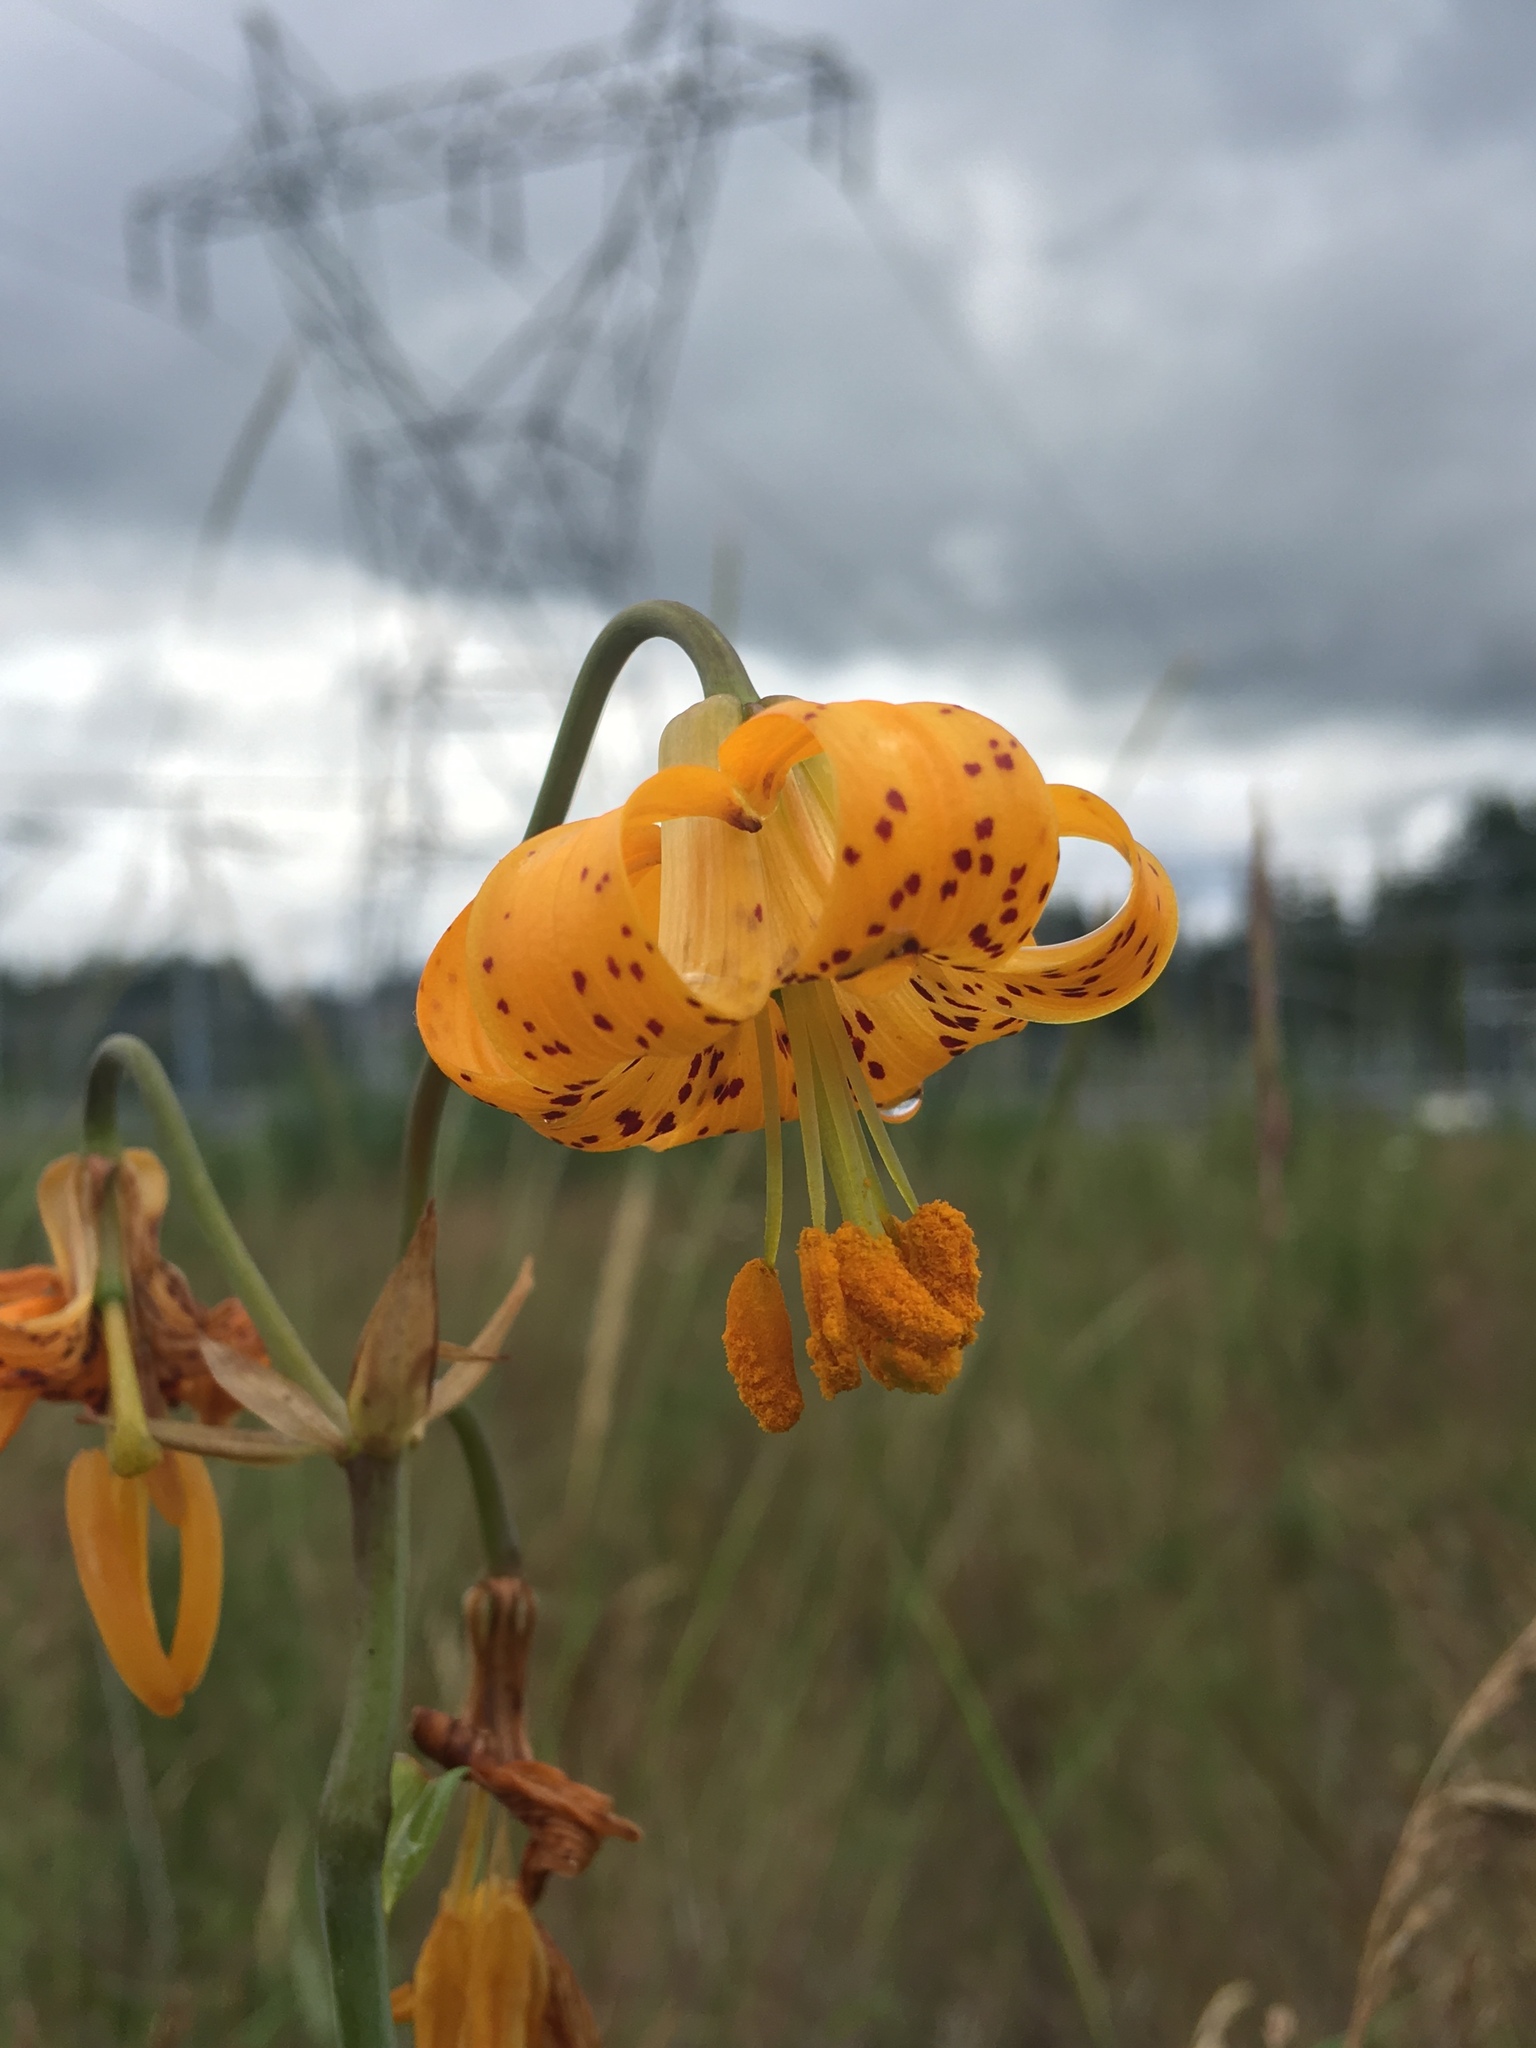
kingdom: Plantae
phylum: Tracheophyta
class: Liliopsida
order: Liliales
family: Liliaceae
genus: Lilium
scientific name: Lilium columbianum
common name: Columbia lily
